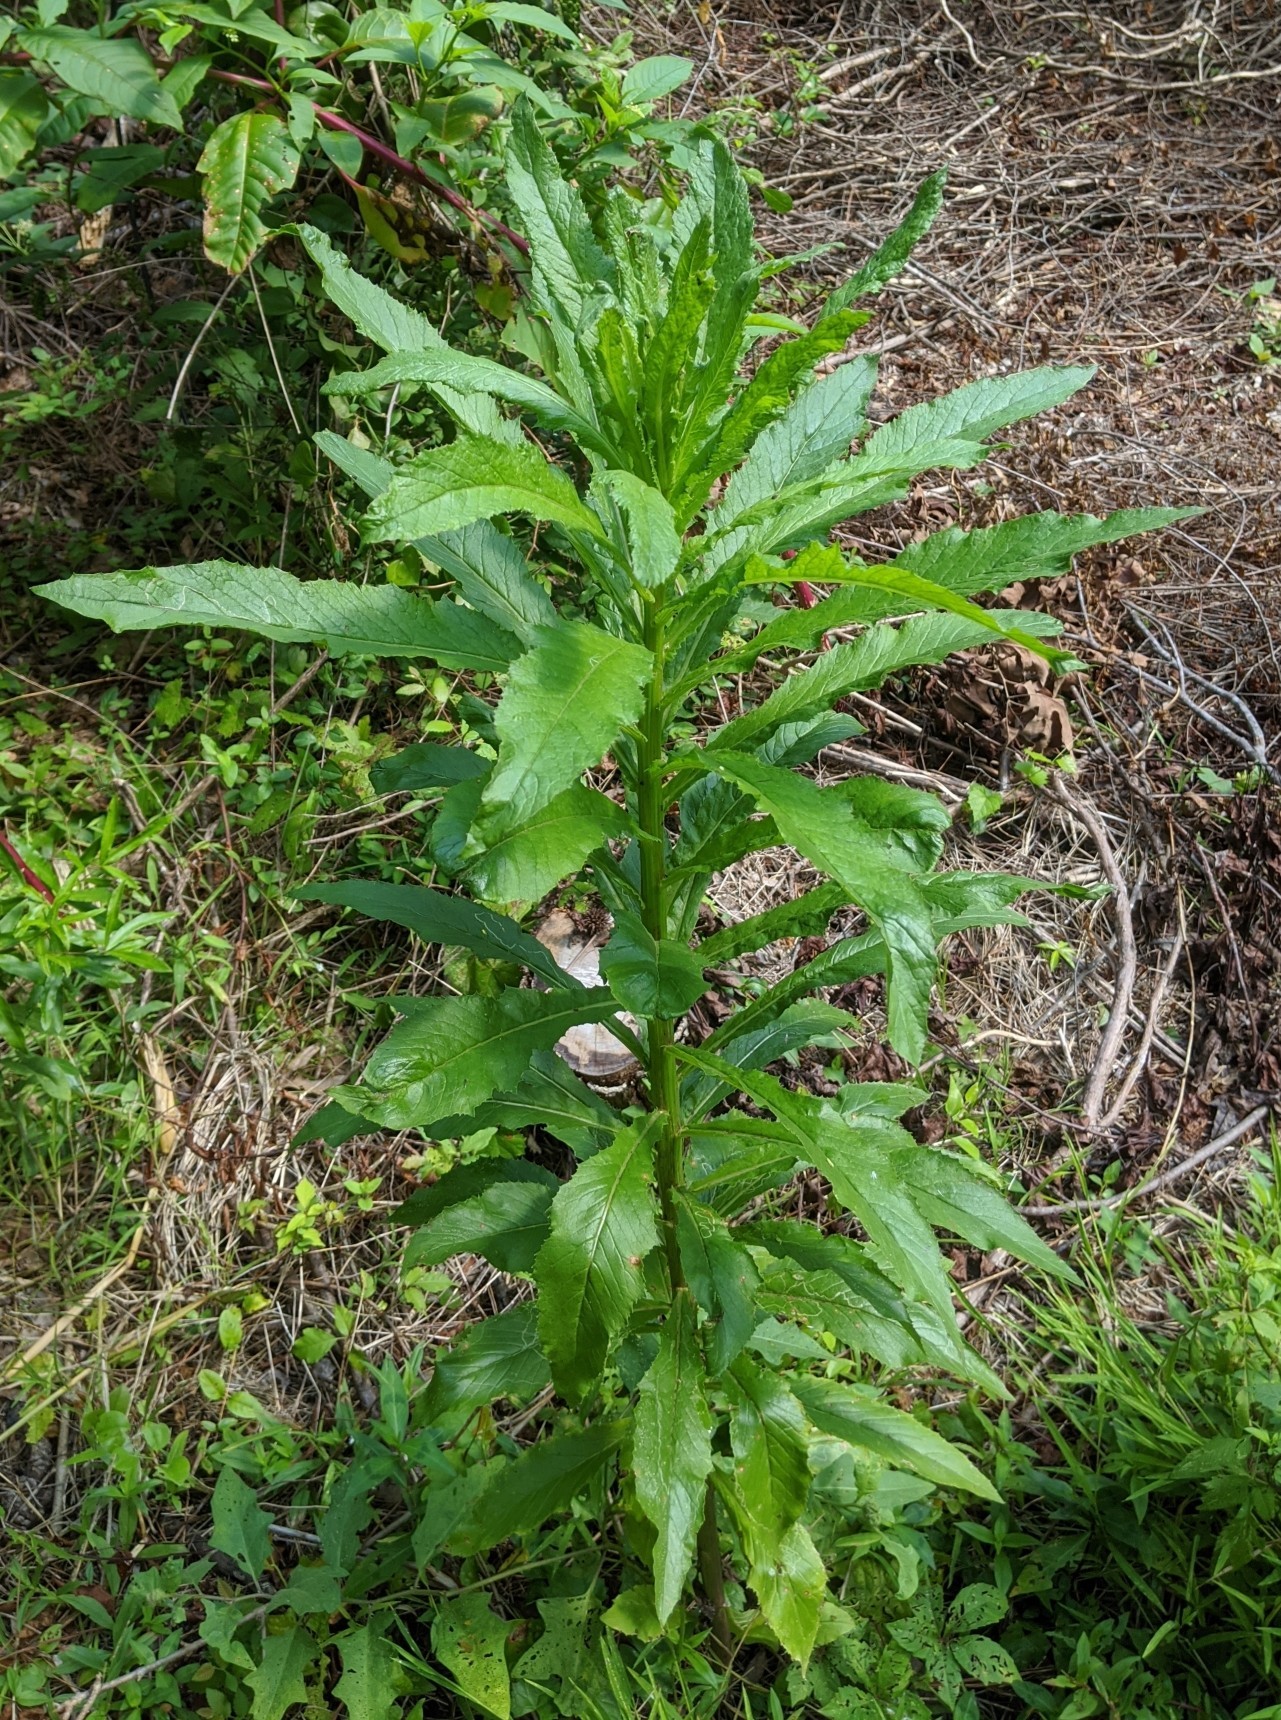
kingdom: Plantae
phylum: Tracheophyta
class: Magnoliopsida
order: Asterales
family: Asteraceae
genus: Erechtites
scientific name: Erechtites hieraciifolius
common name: American burnweed
